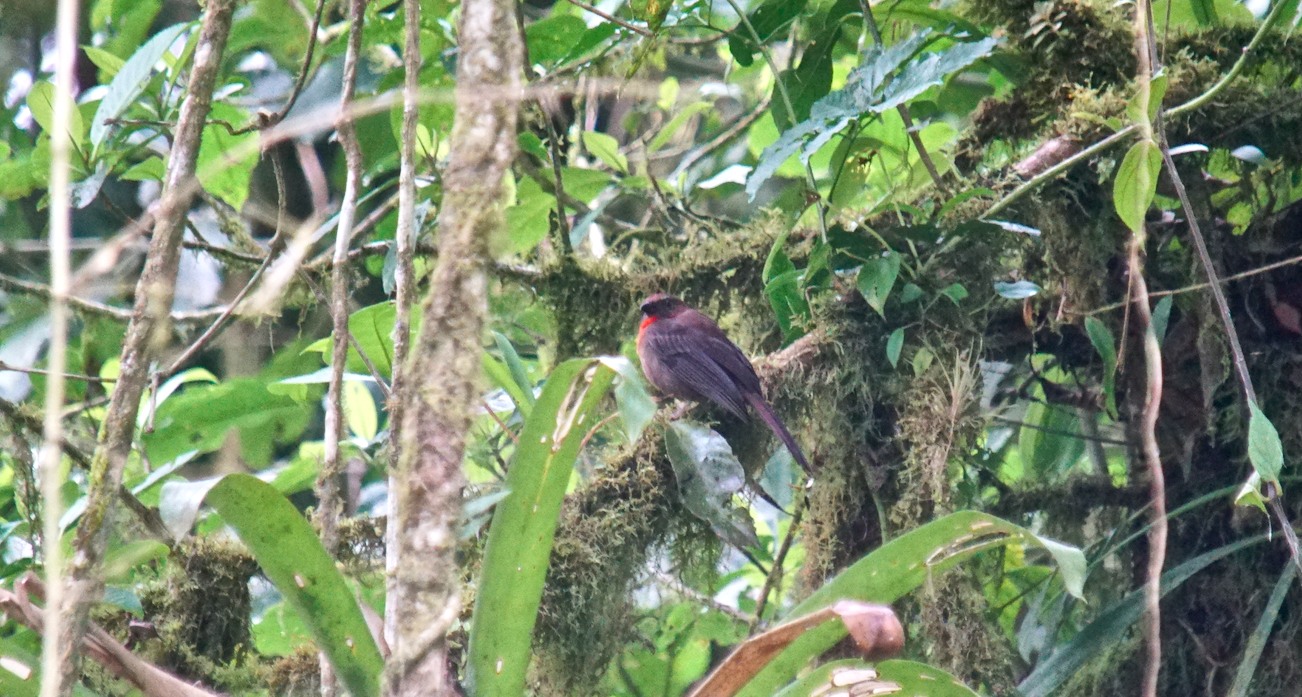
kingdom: Animalia
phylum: Chordata
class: Aves
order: Passeriformes
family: Cardinalidae
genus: Habia
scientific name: Habia fuscicauda
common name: Red-throated ant-tanager
